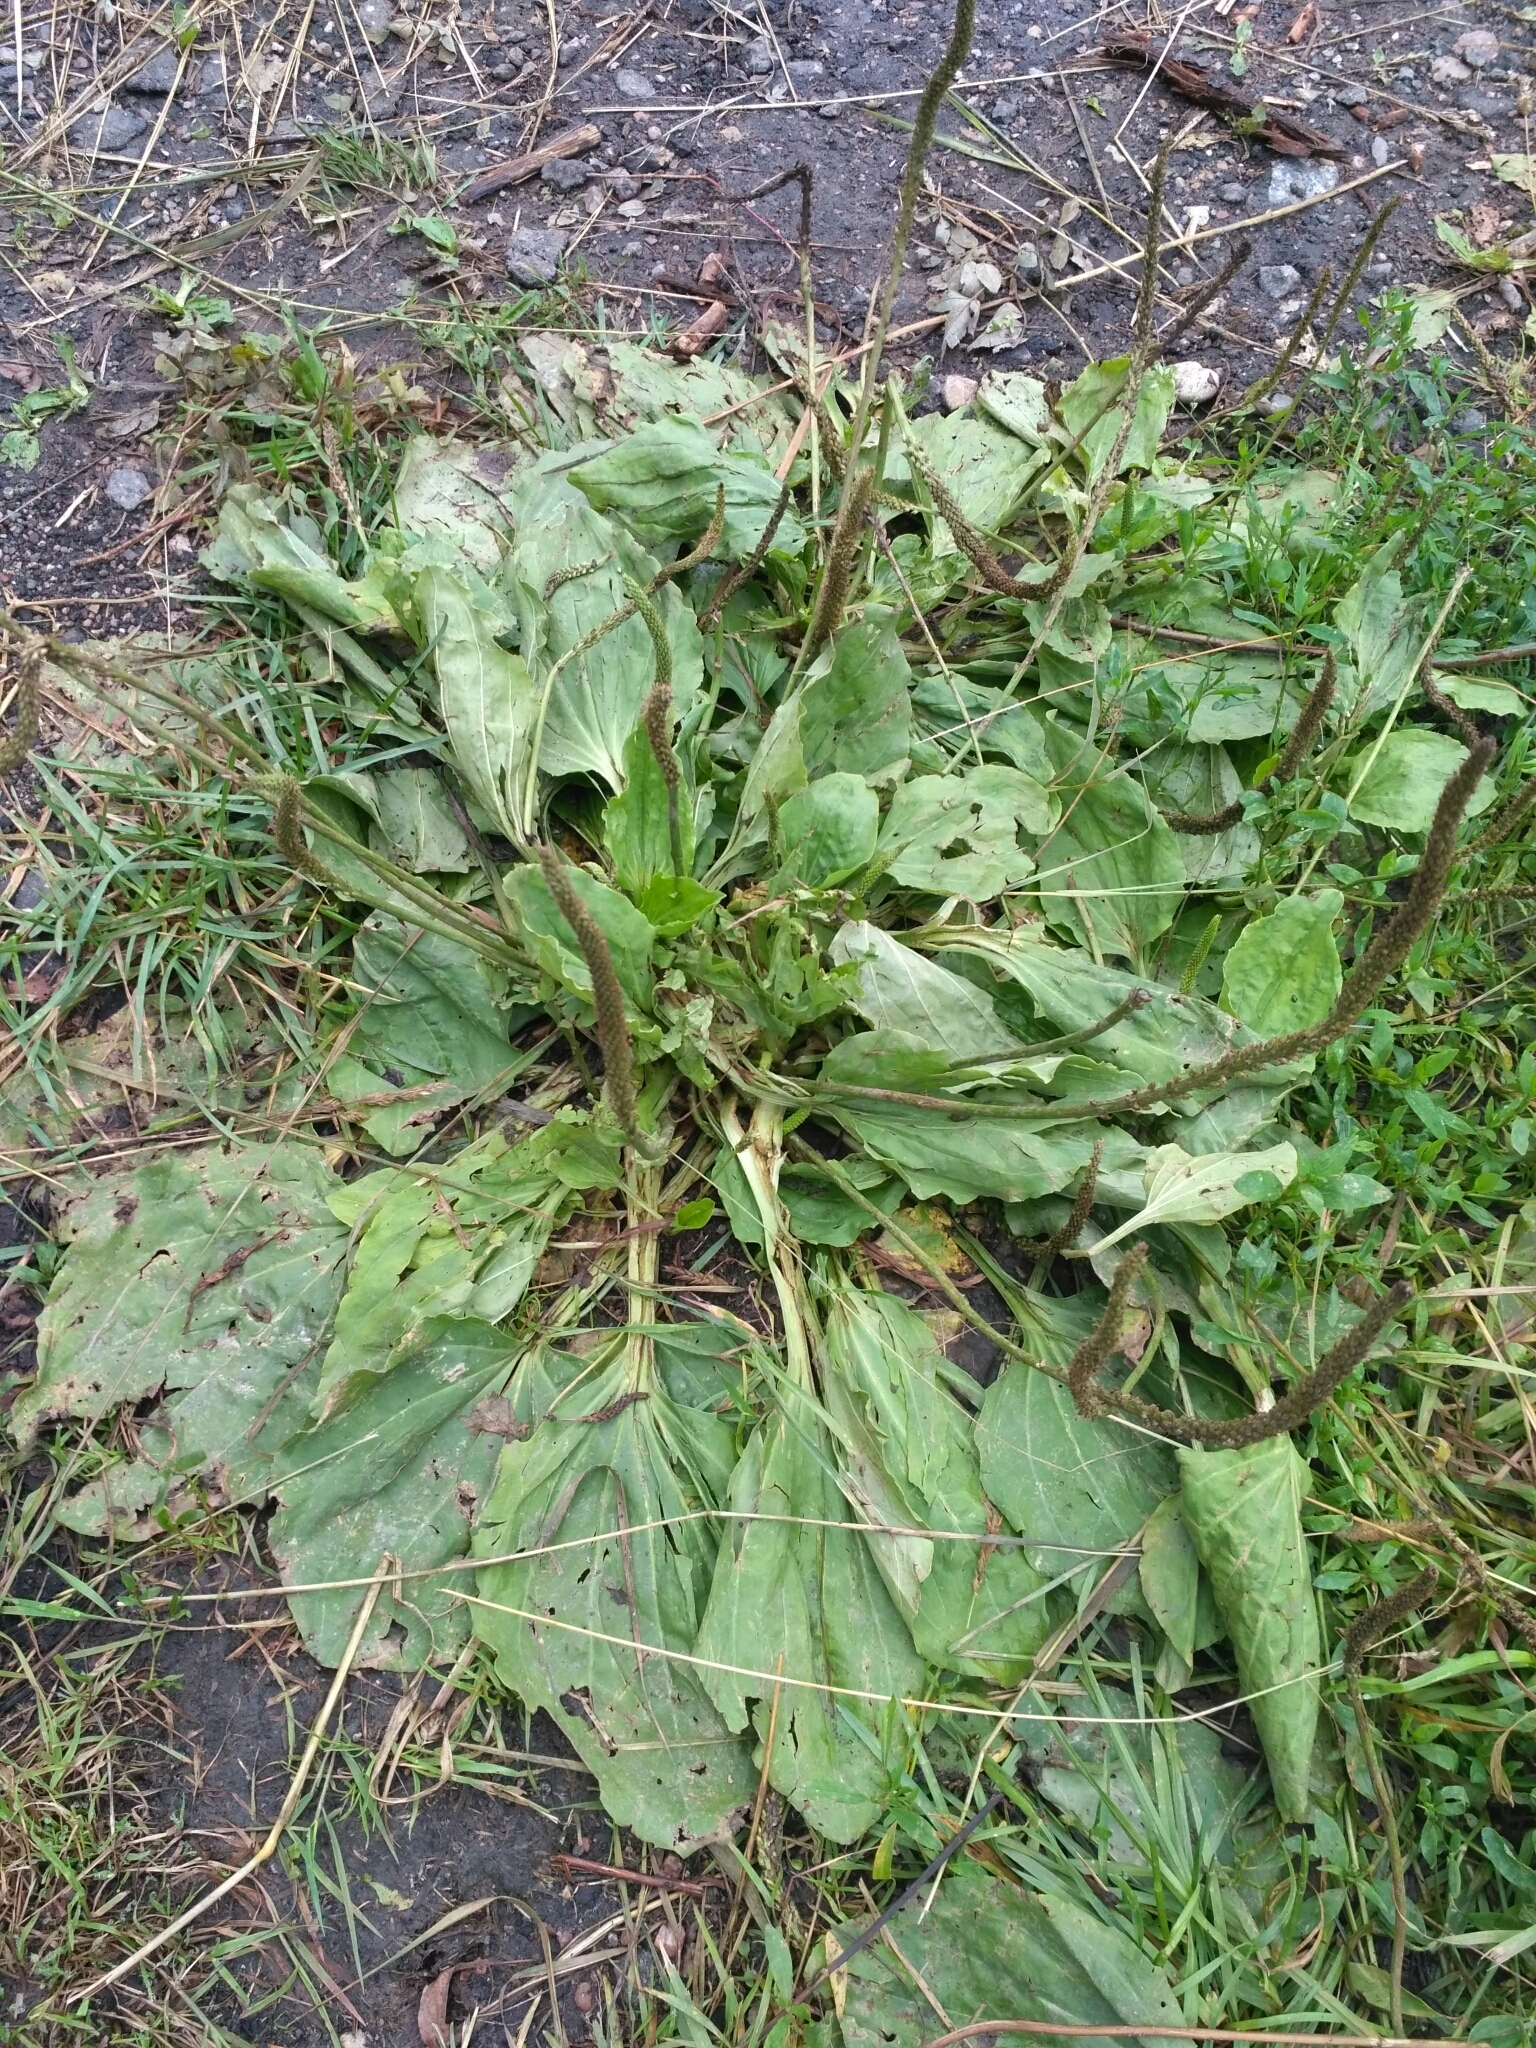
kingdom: Plantae
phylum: Tracheophyta
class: Magnoliopsida
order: Lamiales
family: Plantaginaceae
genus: Plantago
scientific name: Plantago major
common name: Common plantain
